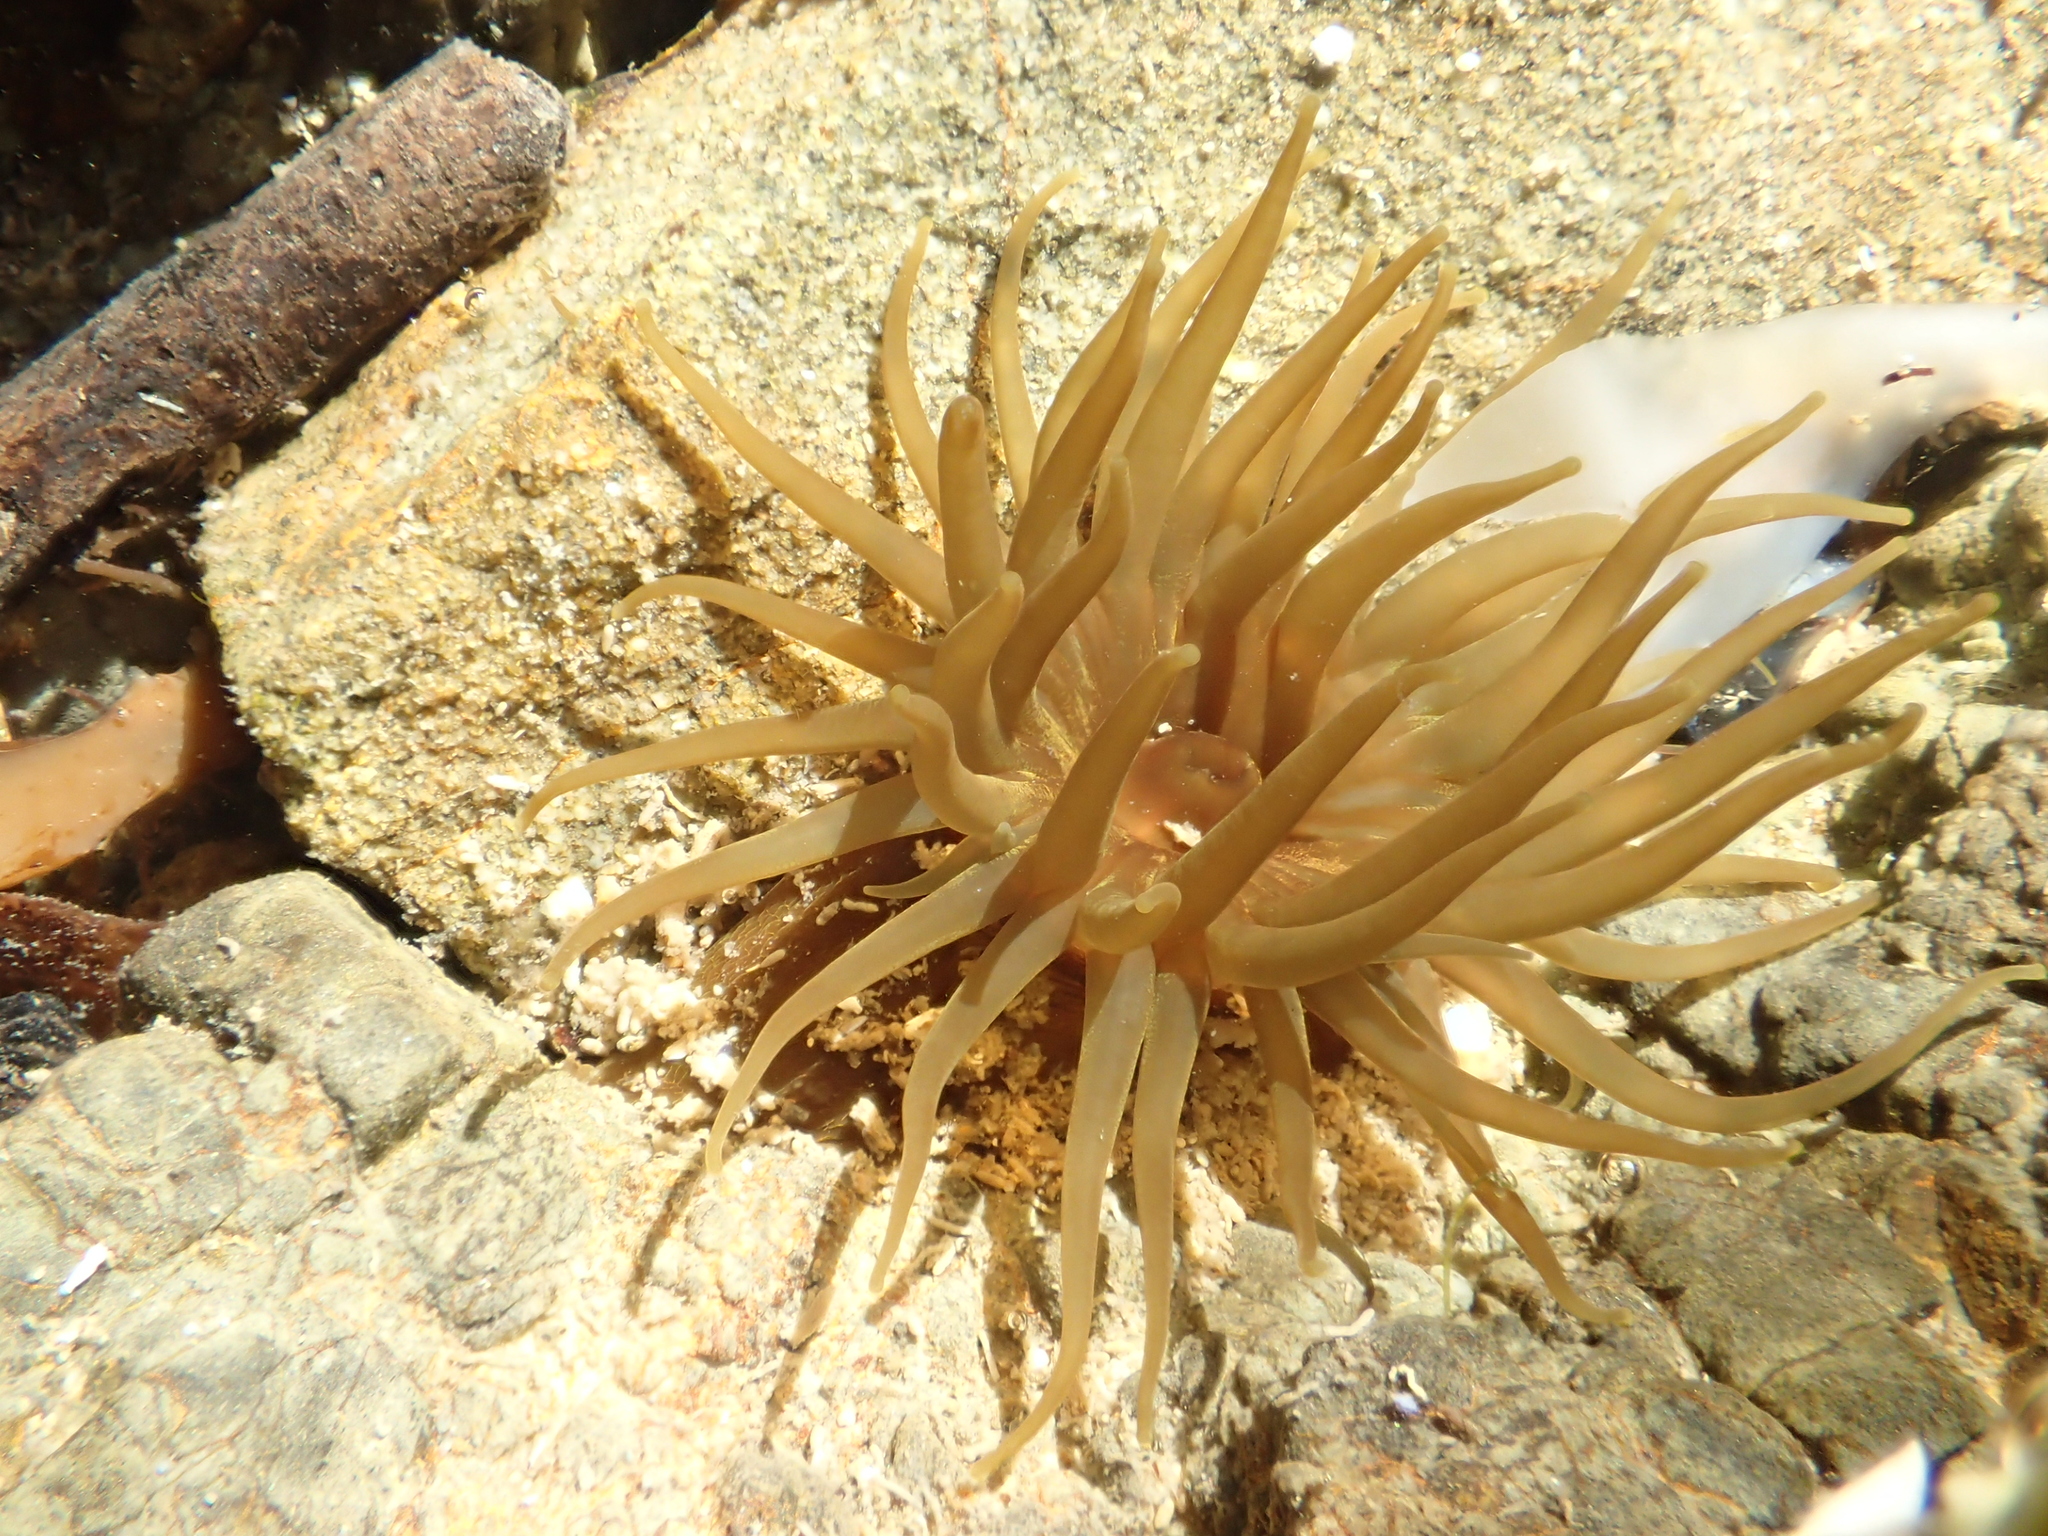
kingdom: Animalia
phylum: Cnidaria
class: Anthozoa
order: Actiniaria
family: Actiniidae
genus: Isactinia
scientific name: Isactinia olivacea
